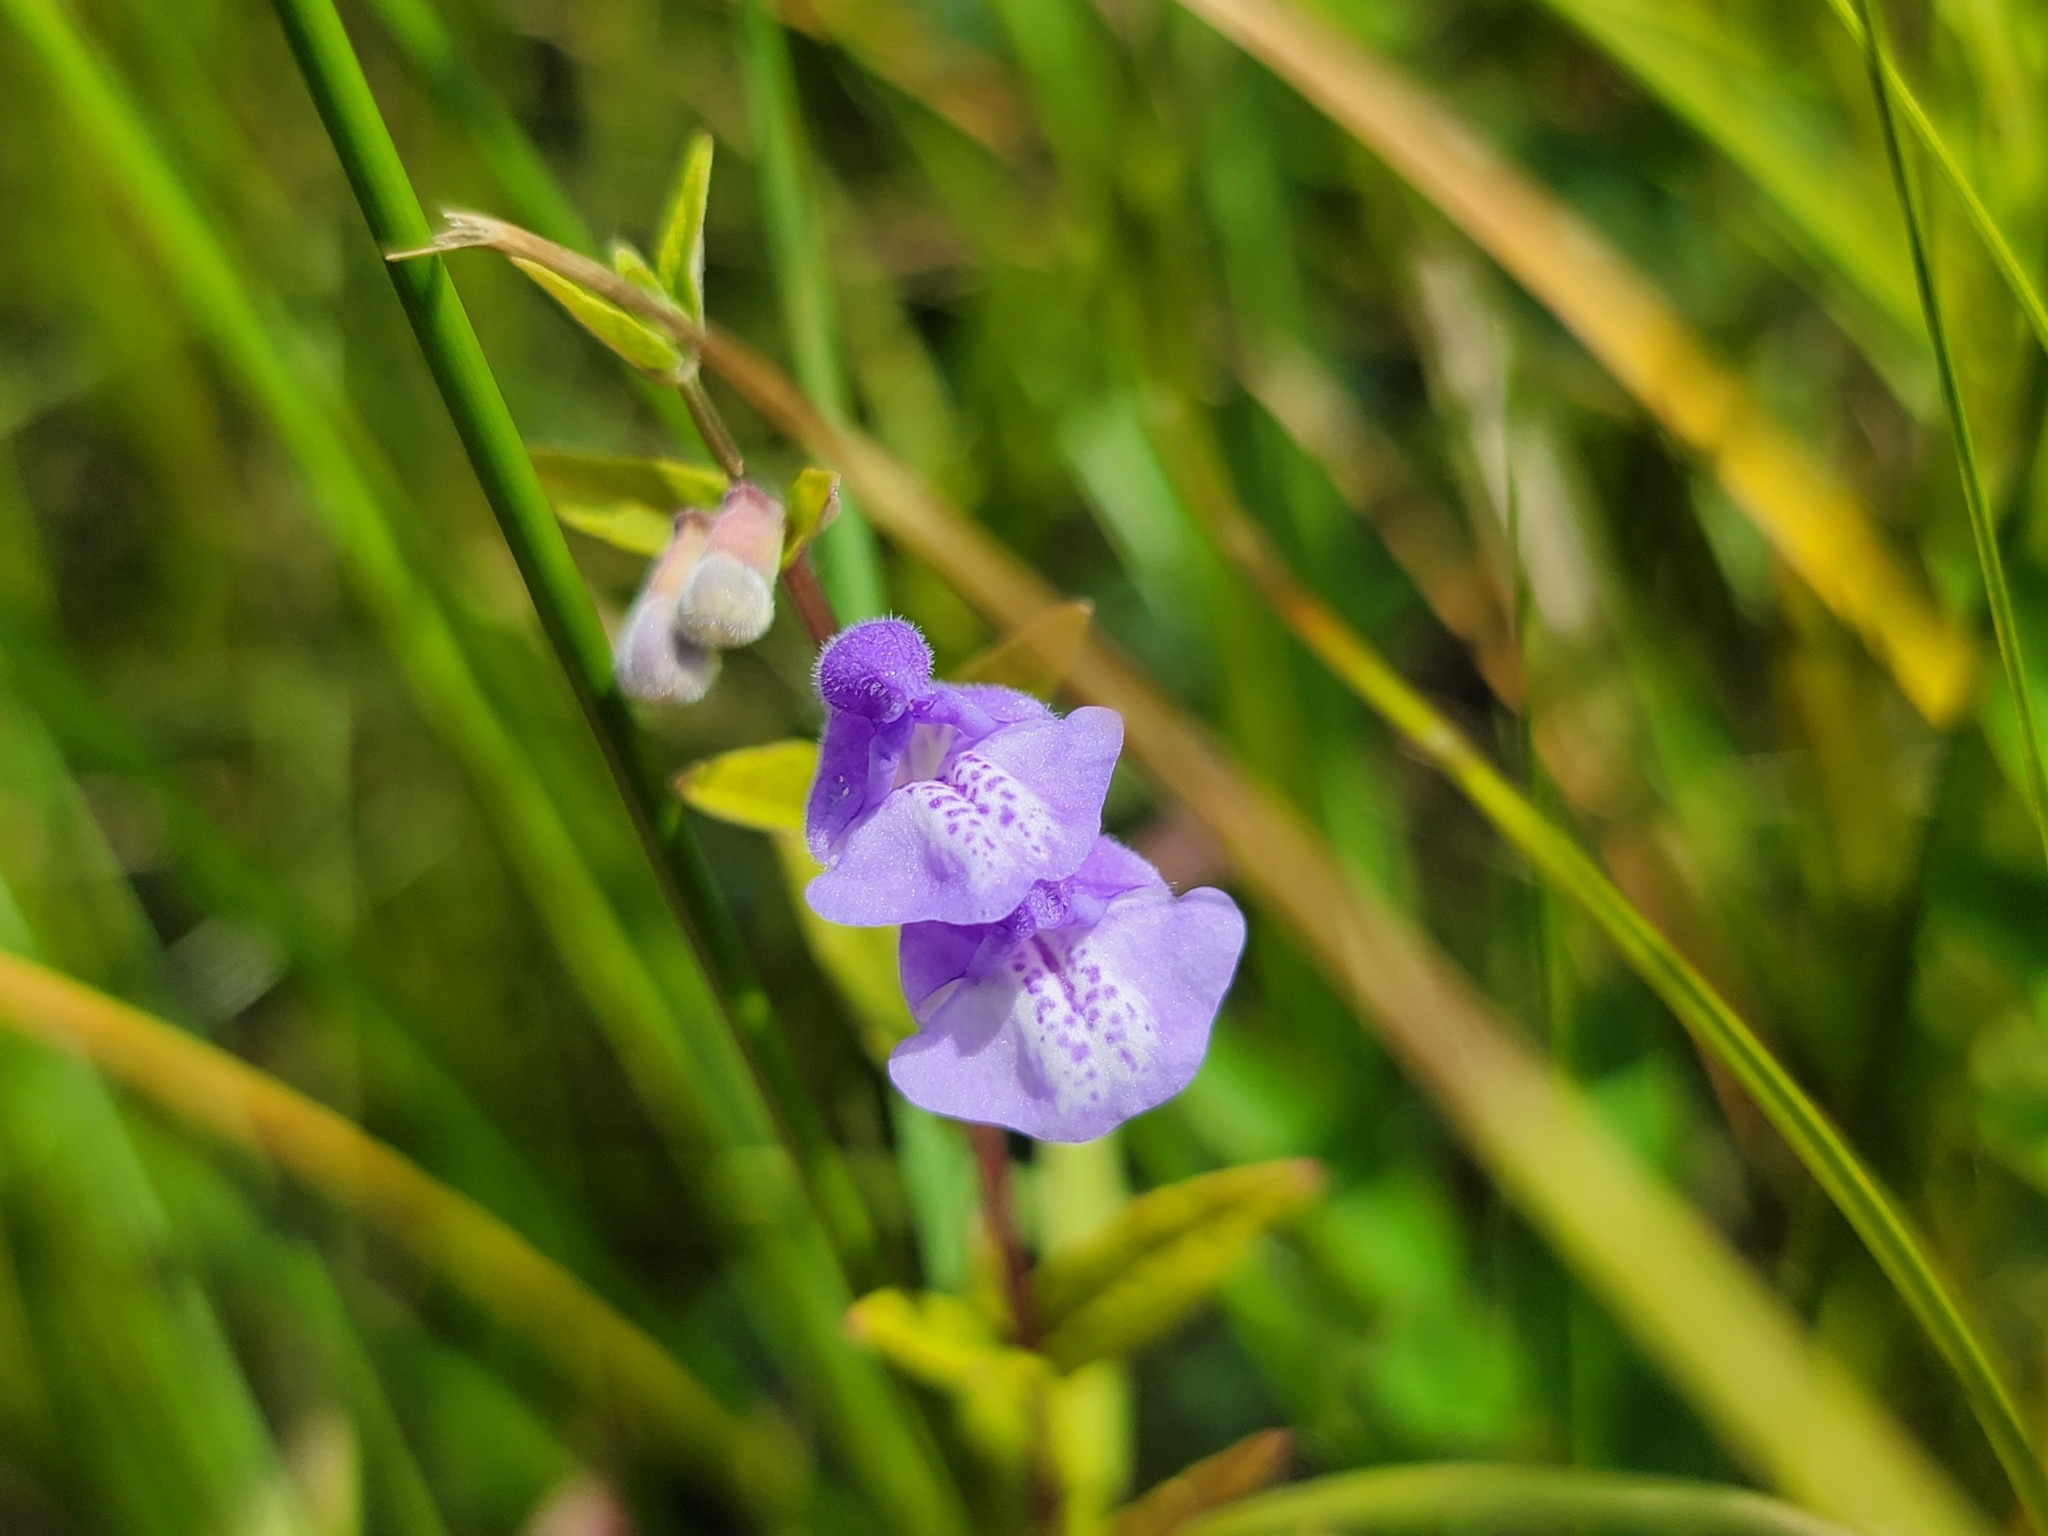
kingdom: Plantae
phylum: Tracheophyta
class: Magnoliopsida
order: Lamiales
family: Lamiaceae
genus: Scutellaria
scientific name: Scutellaria galericulata
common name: Skullcap
